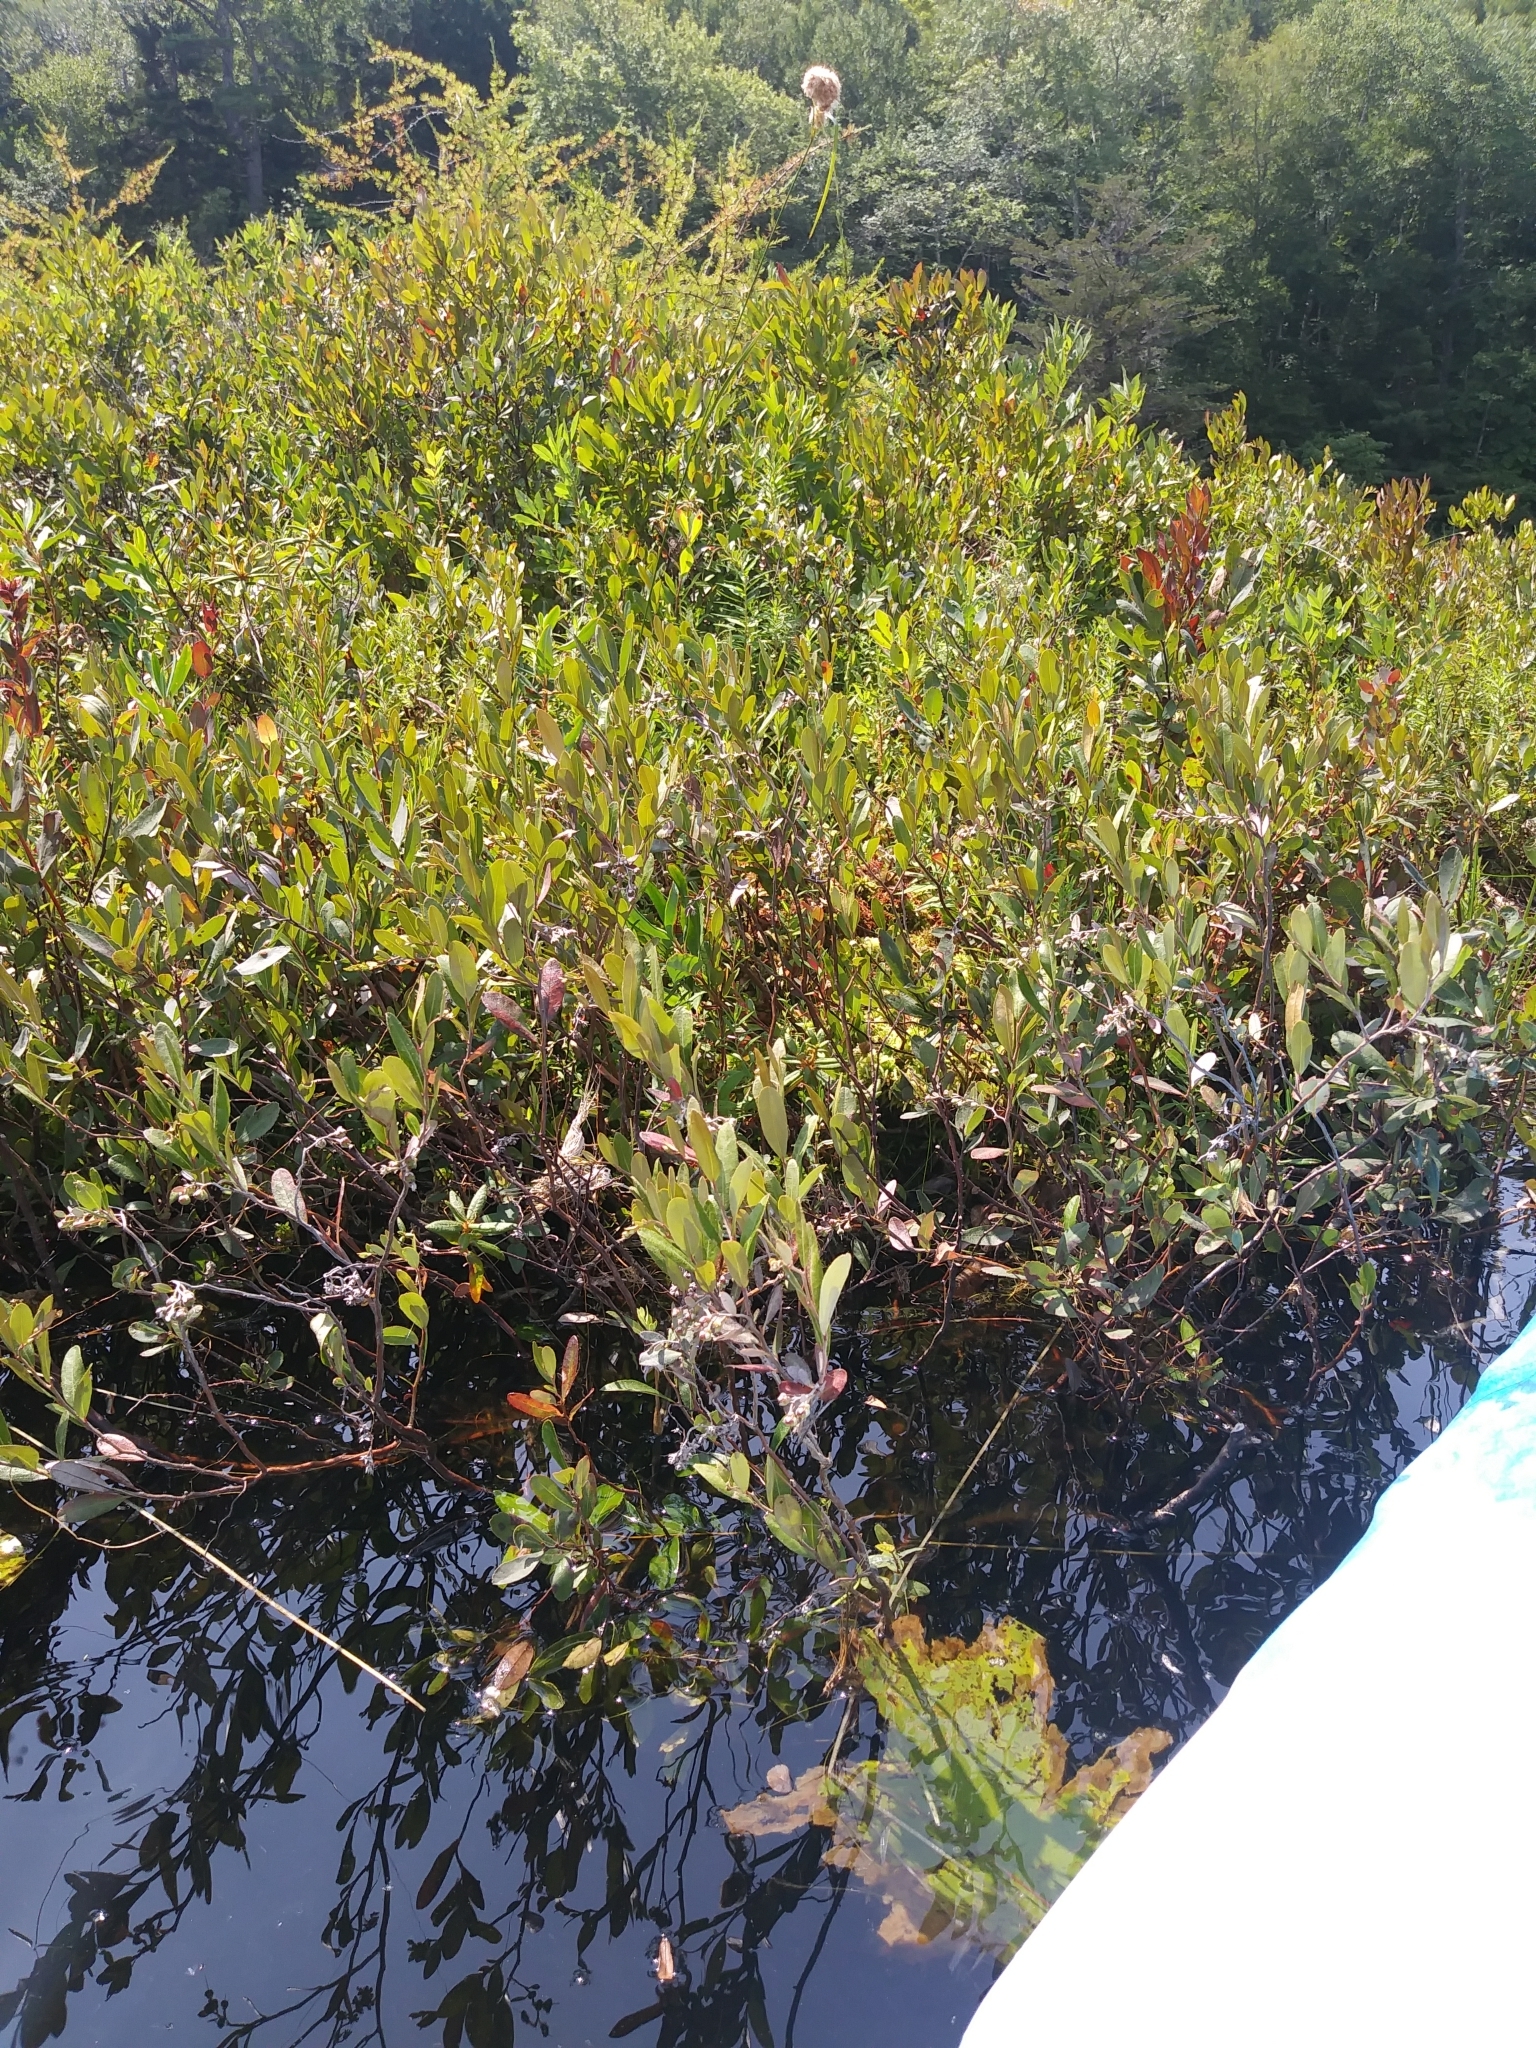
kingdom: Plantae
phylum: Tracheophyta
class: Magnoliopsida
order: Fagales
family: Myricaceae
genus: Myrica
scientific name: Myrica gale
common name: Sweet gale
